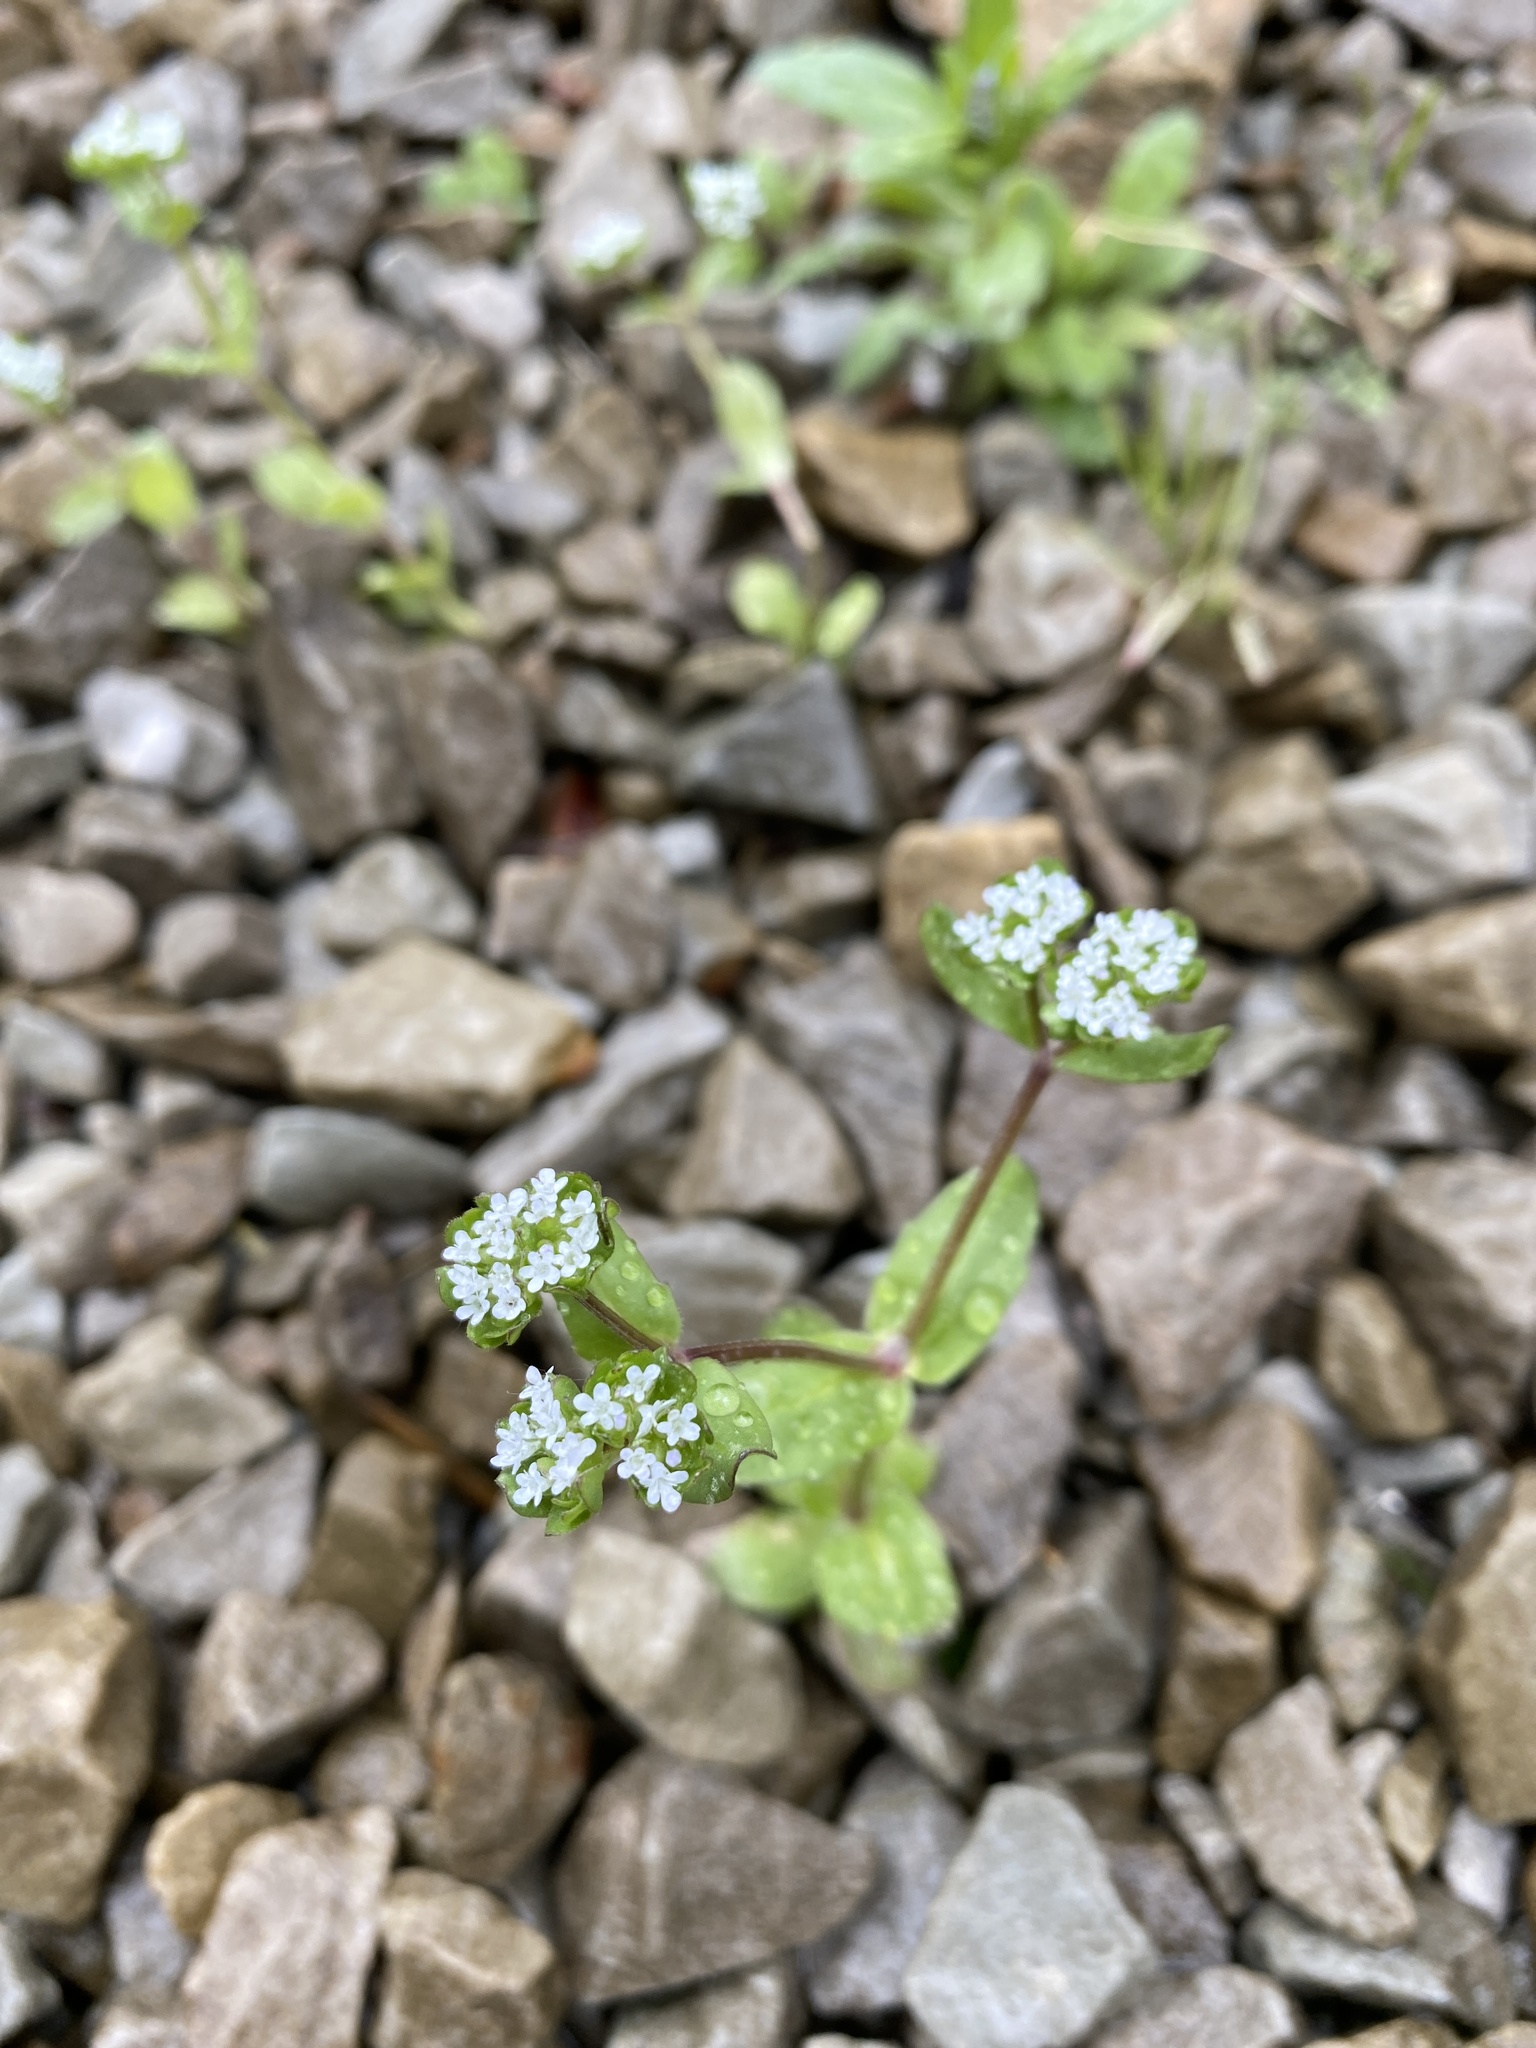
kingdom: Plantae
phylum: Tracheophyta
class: Magnoliopsida
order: Dipsacales
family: Caprifoliaceae
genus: Valerianella
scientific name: Valerianella locusta
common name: Common cornsalad
